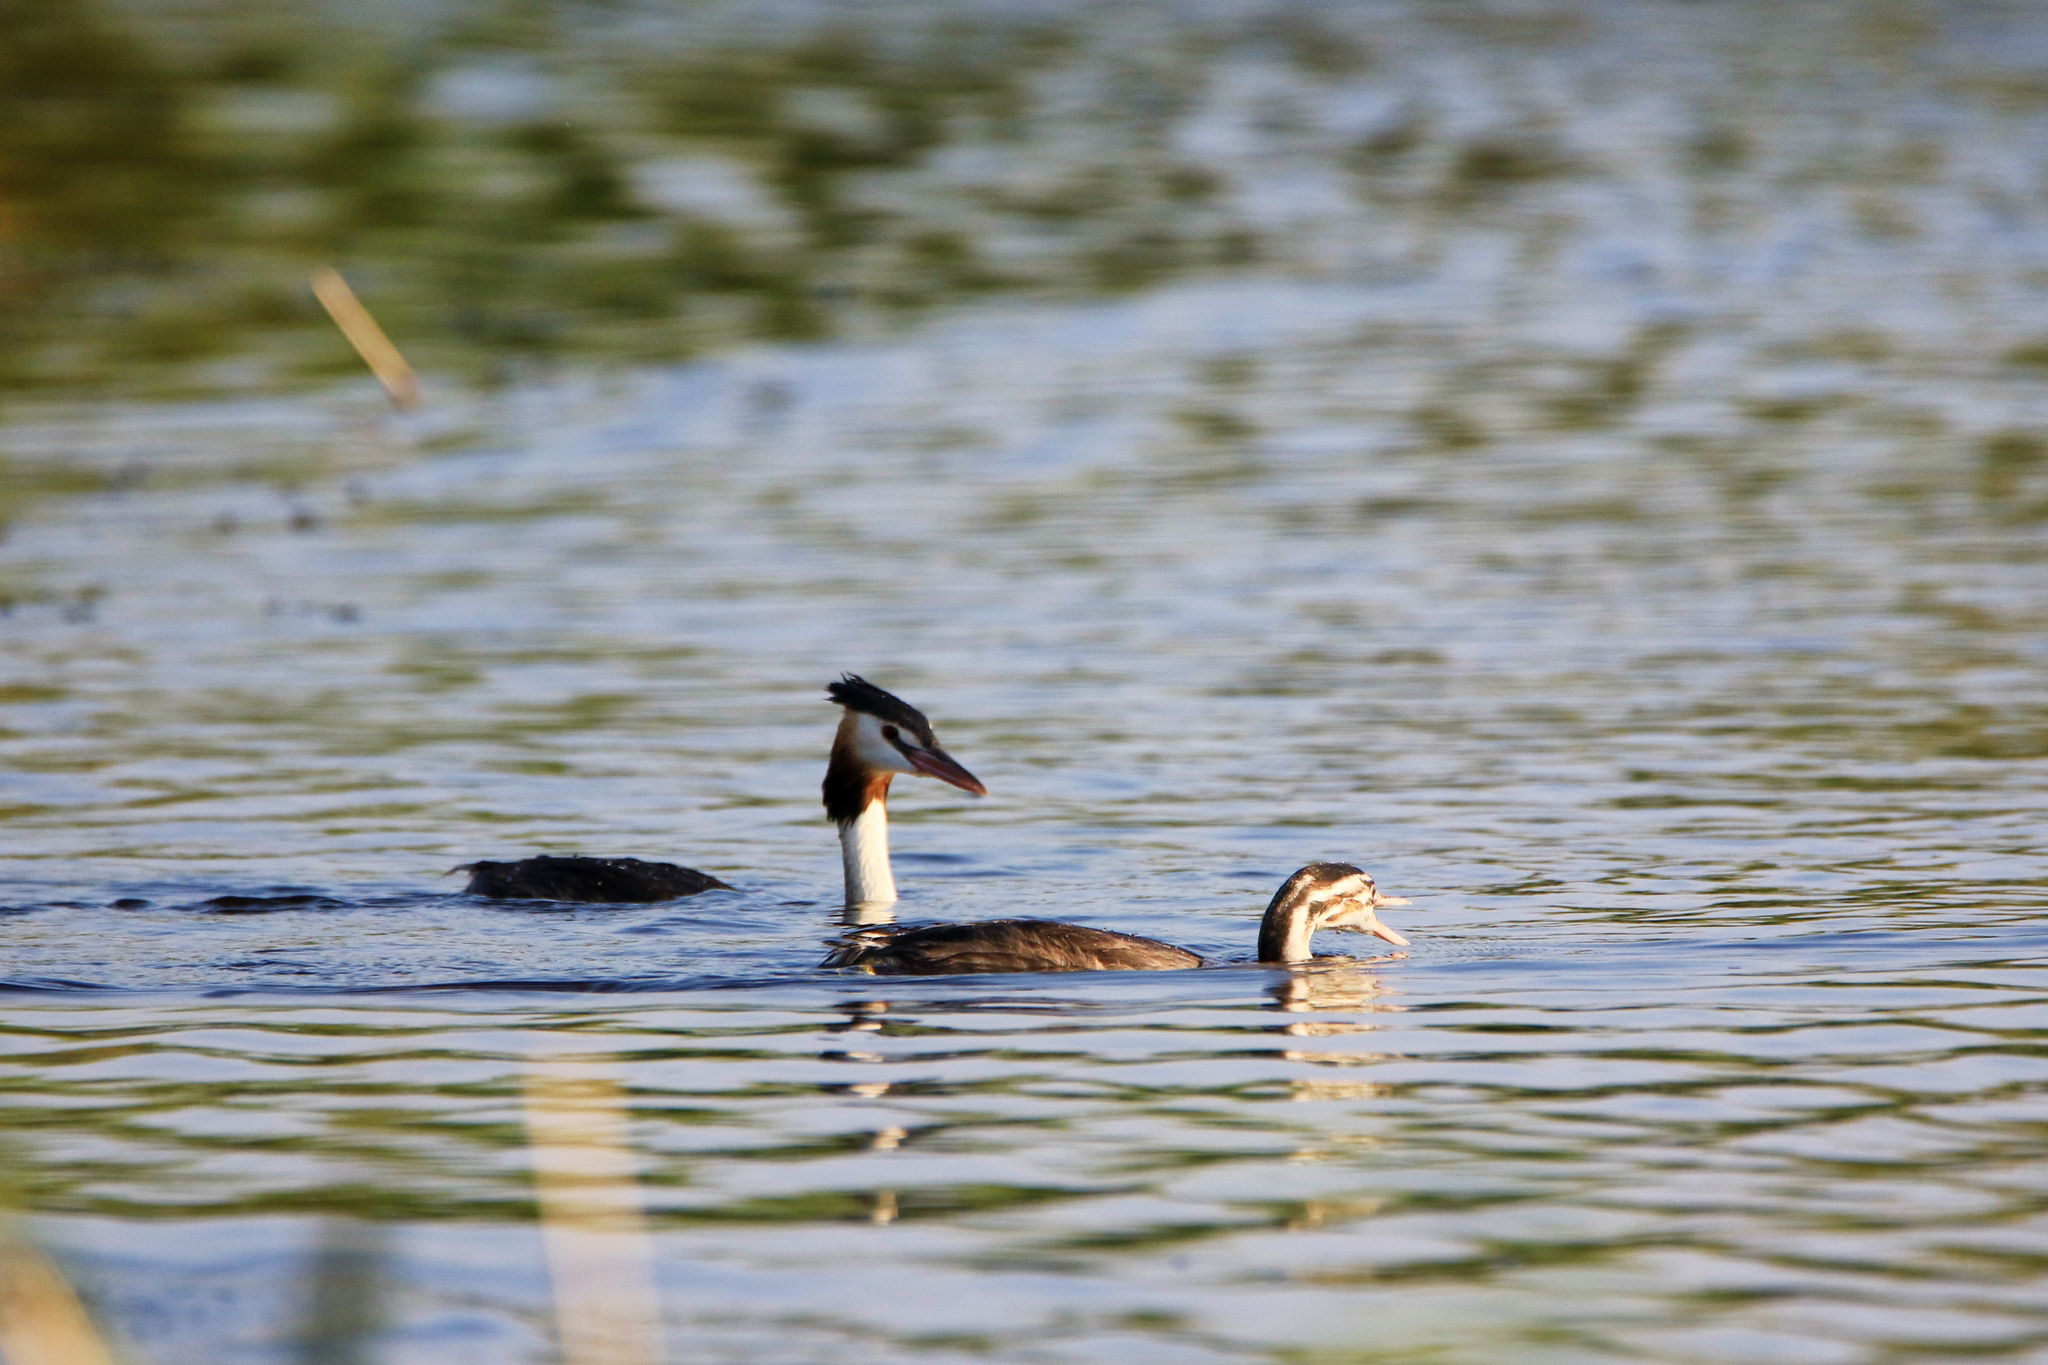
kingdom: Animalia
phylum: Chordata
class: Aves
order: Podicipediformes
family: Podicipedidae
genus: Podiceps
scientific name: Podiceps cristatus
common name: Great crested grebe
